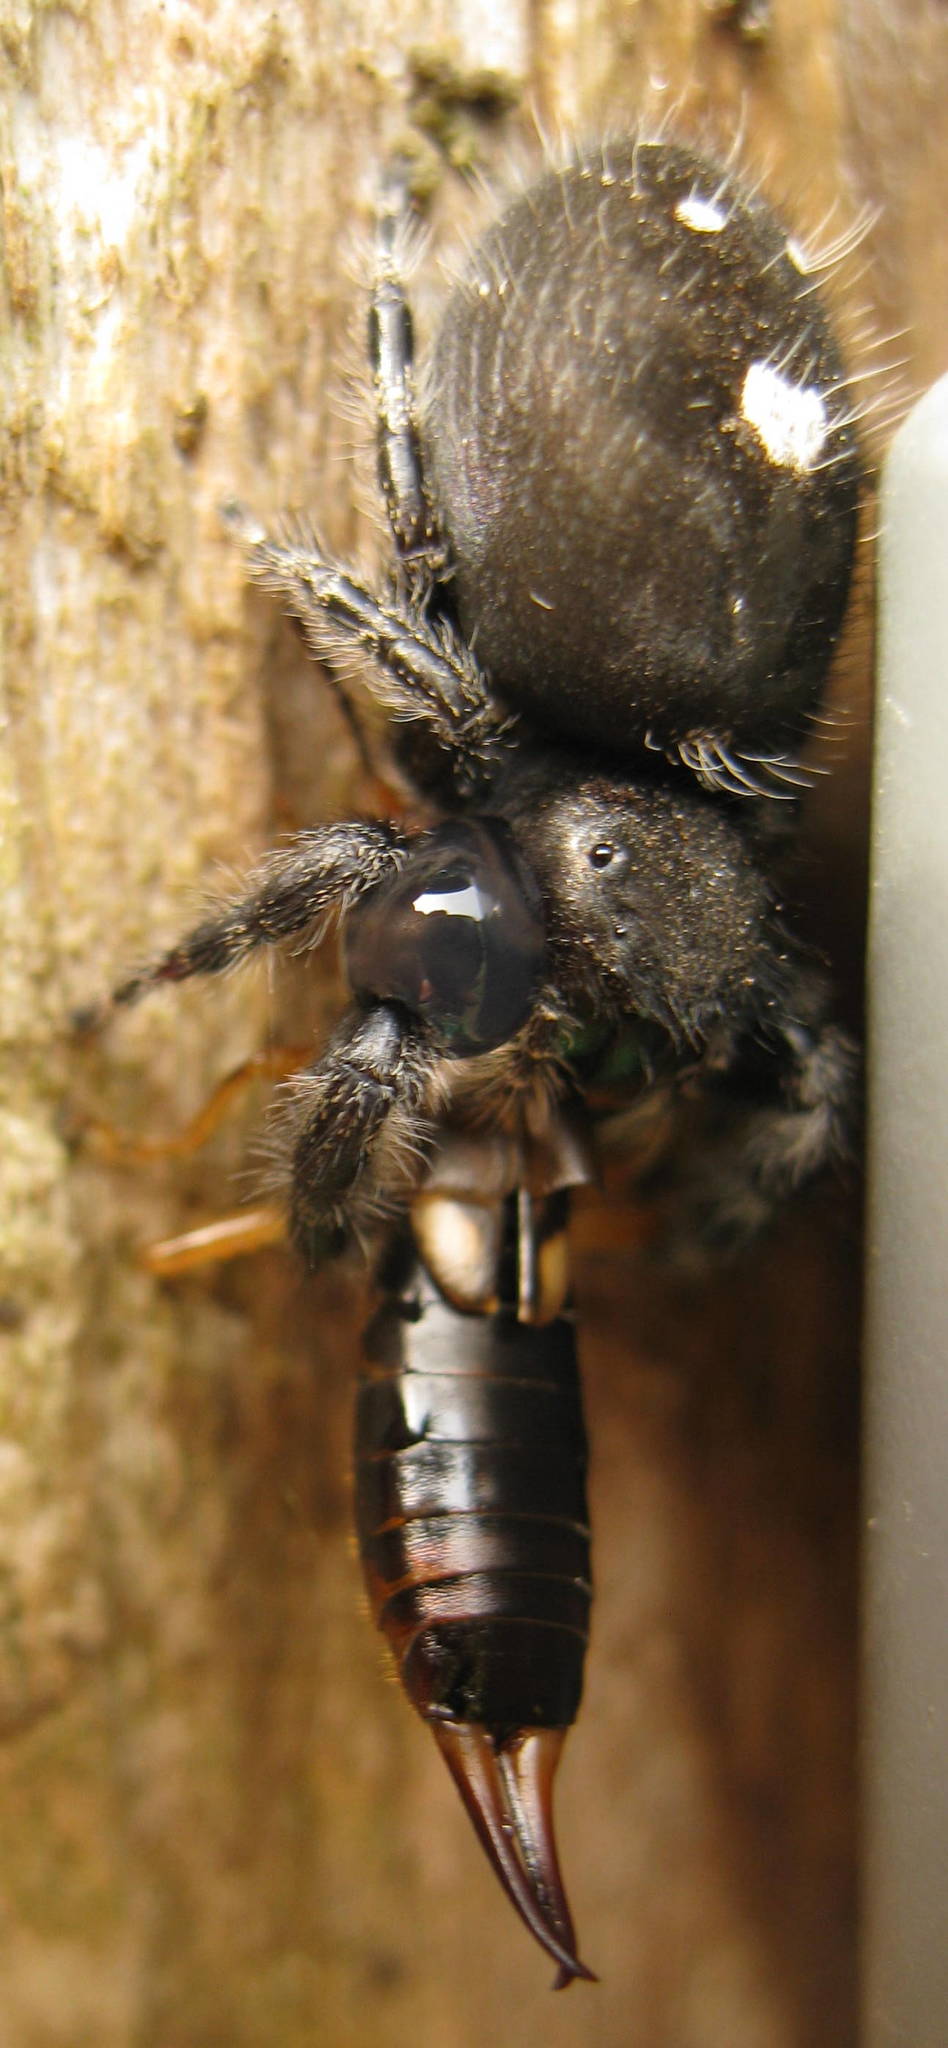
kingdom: Animalia
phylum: Arthropoda
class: Arachnida
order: Araneae
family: Salticidae
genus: Phidippus
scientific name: Phidippus audax
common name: Bold jumper
